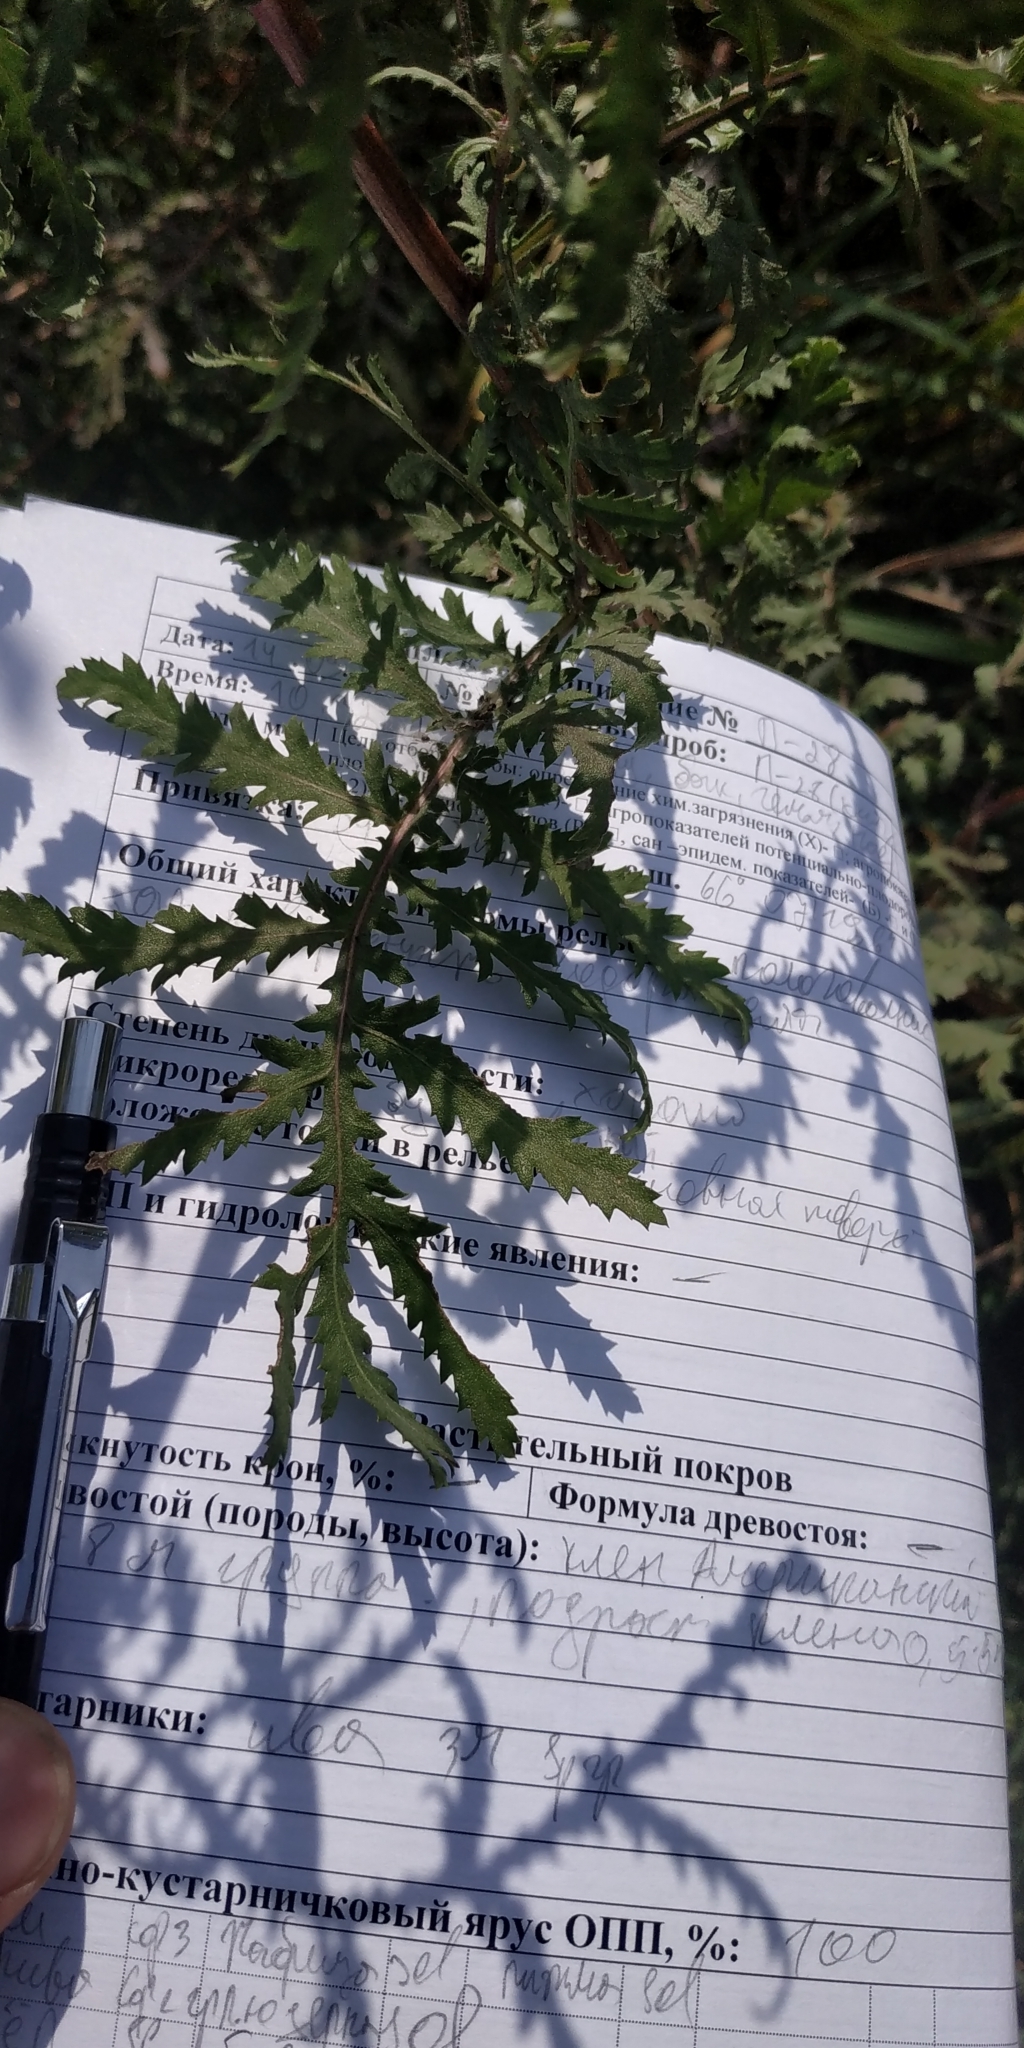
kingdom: Plantae
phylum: Tracheophyta
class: Magnoliopsida
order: Asterales
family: Asteraceae
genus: Tanacetum
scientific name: Tanacetum vulgare
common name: Common tansy
